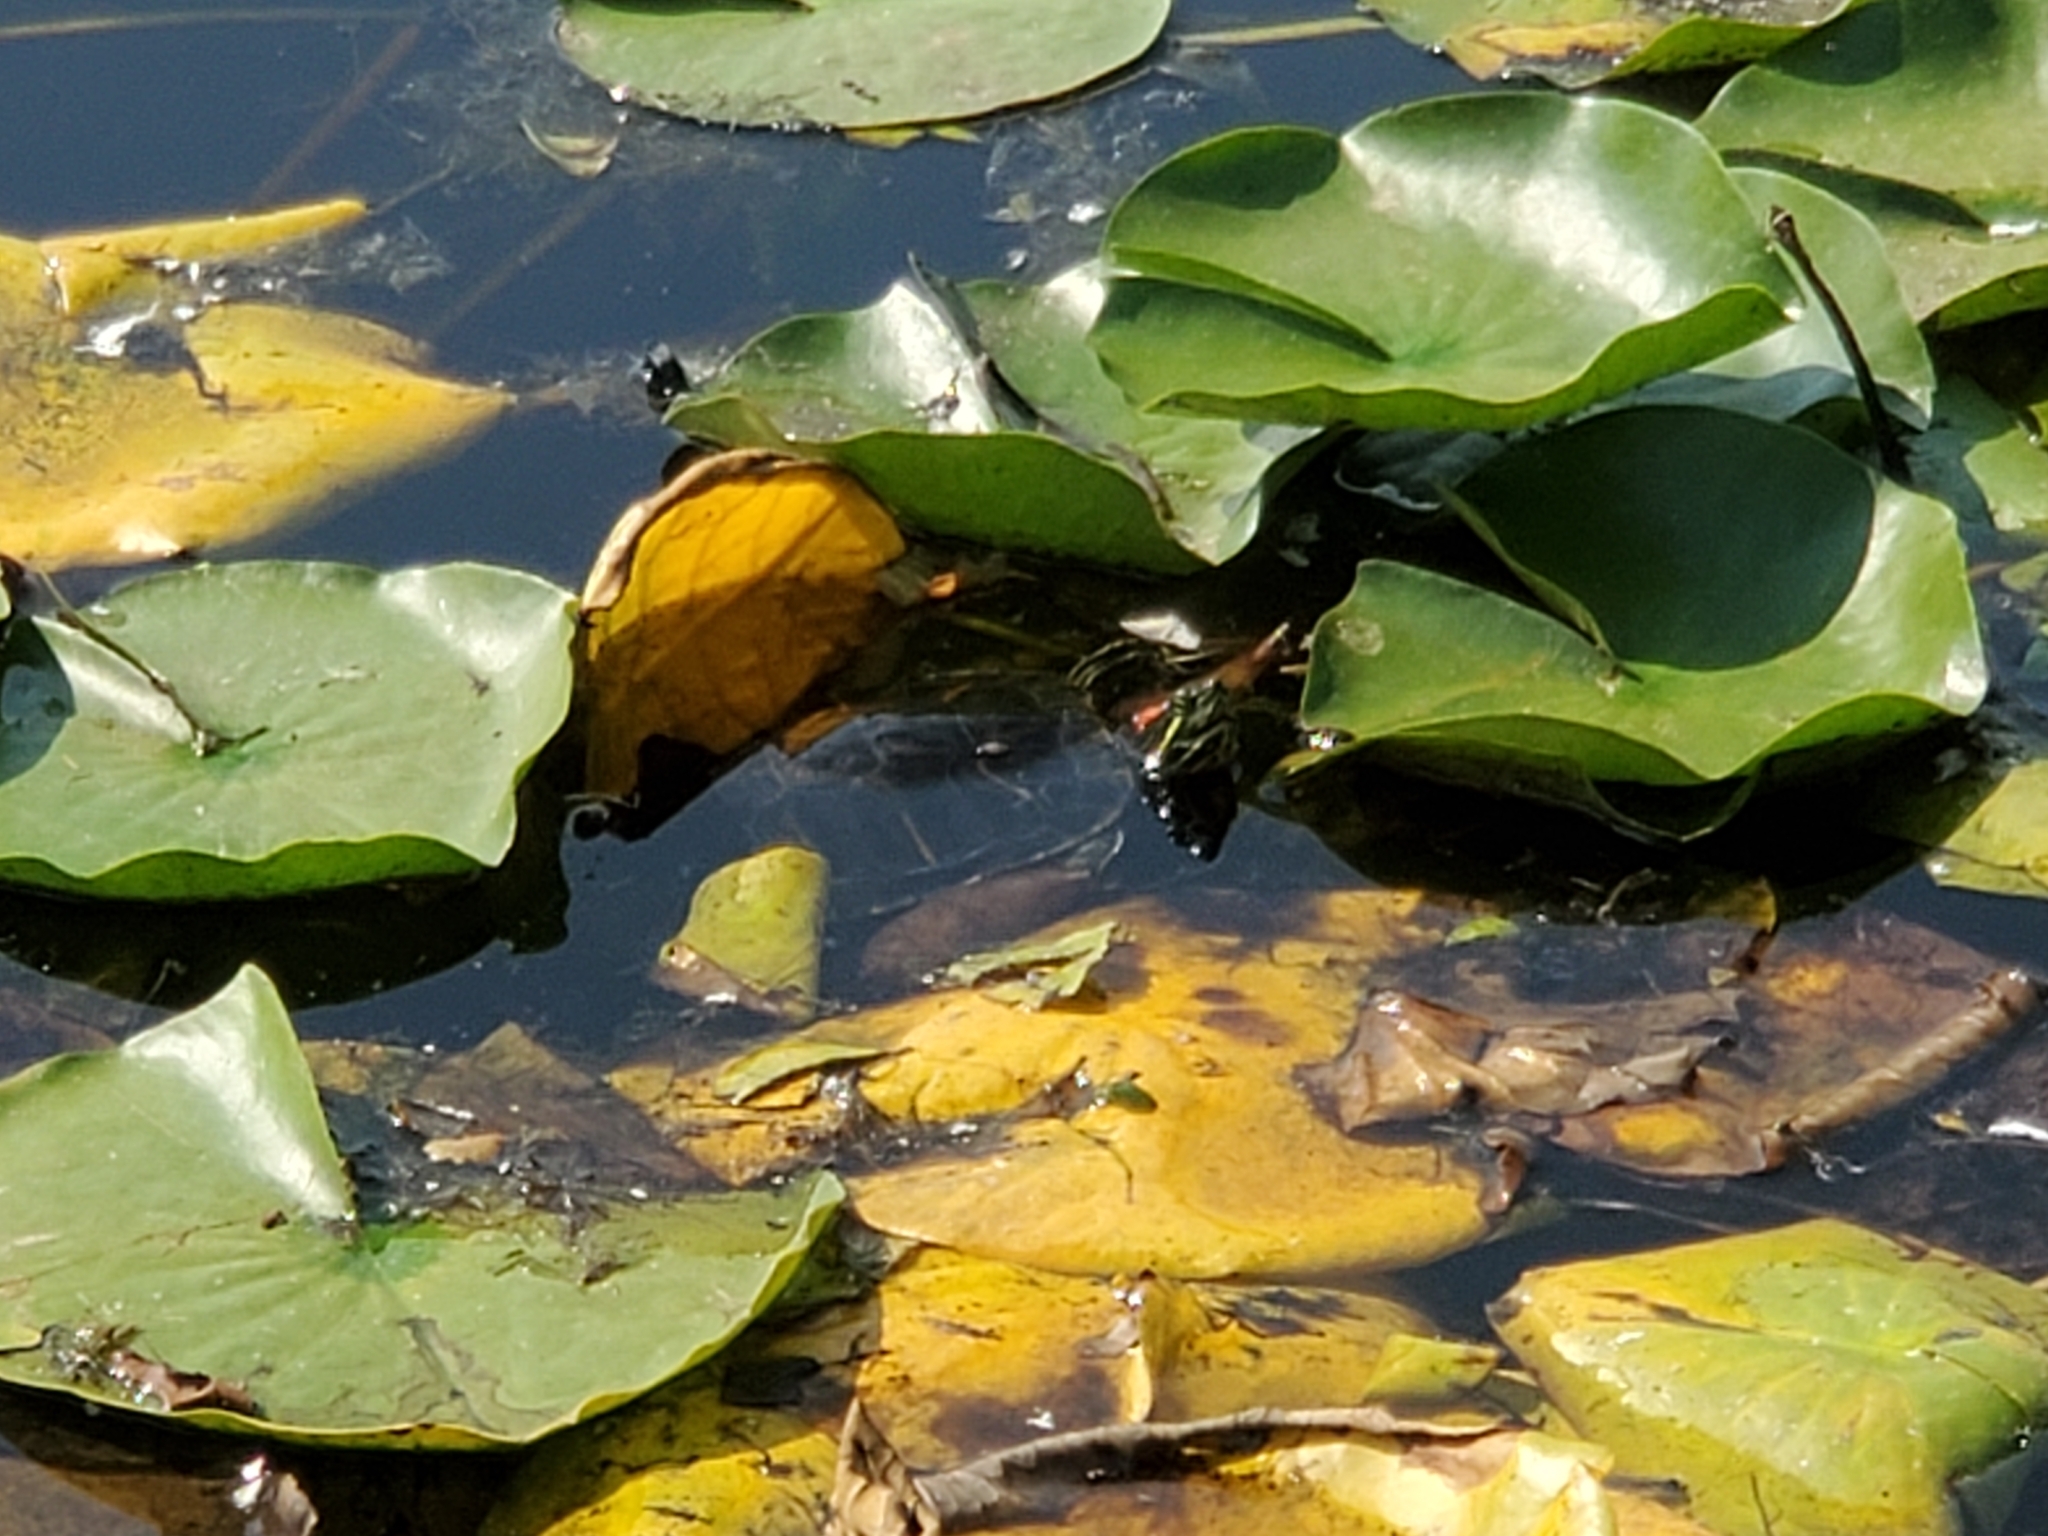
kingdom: Animalia
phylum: Chordata
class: Testudines
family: Emydidae
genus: Trachemys
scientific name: Trachemys scripta
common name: Slider
